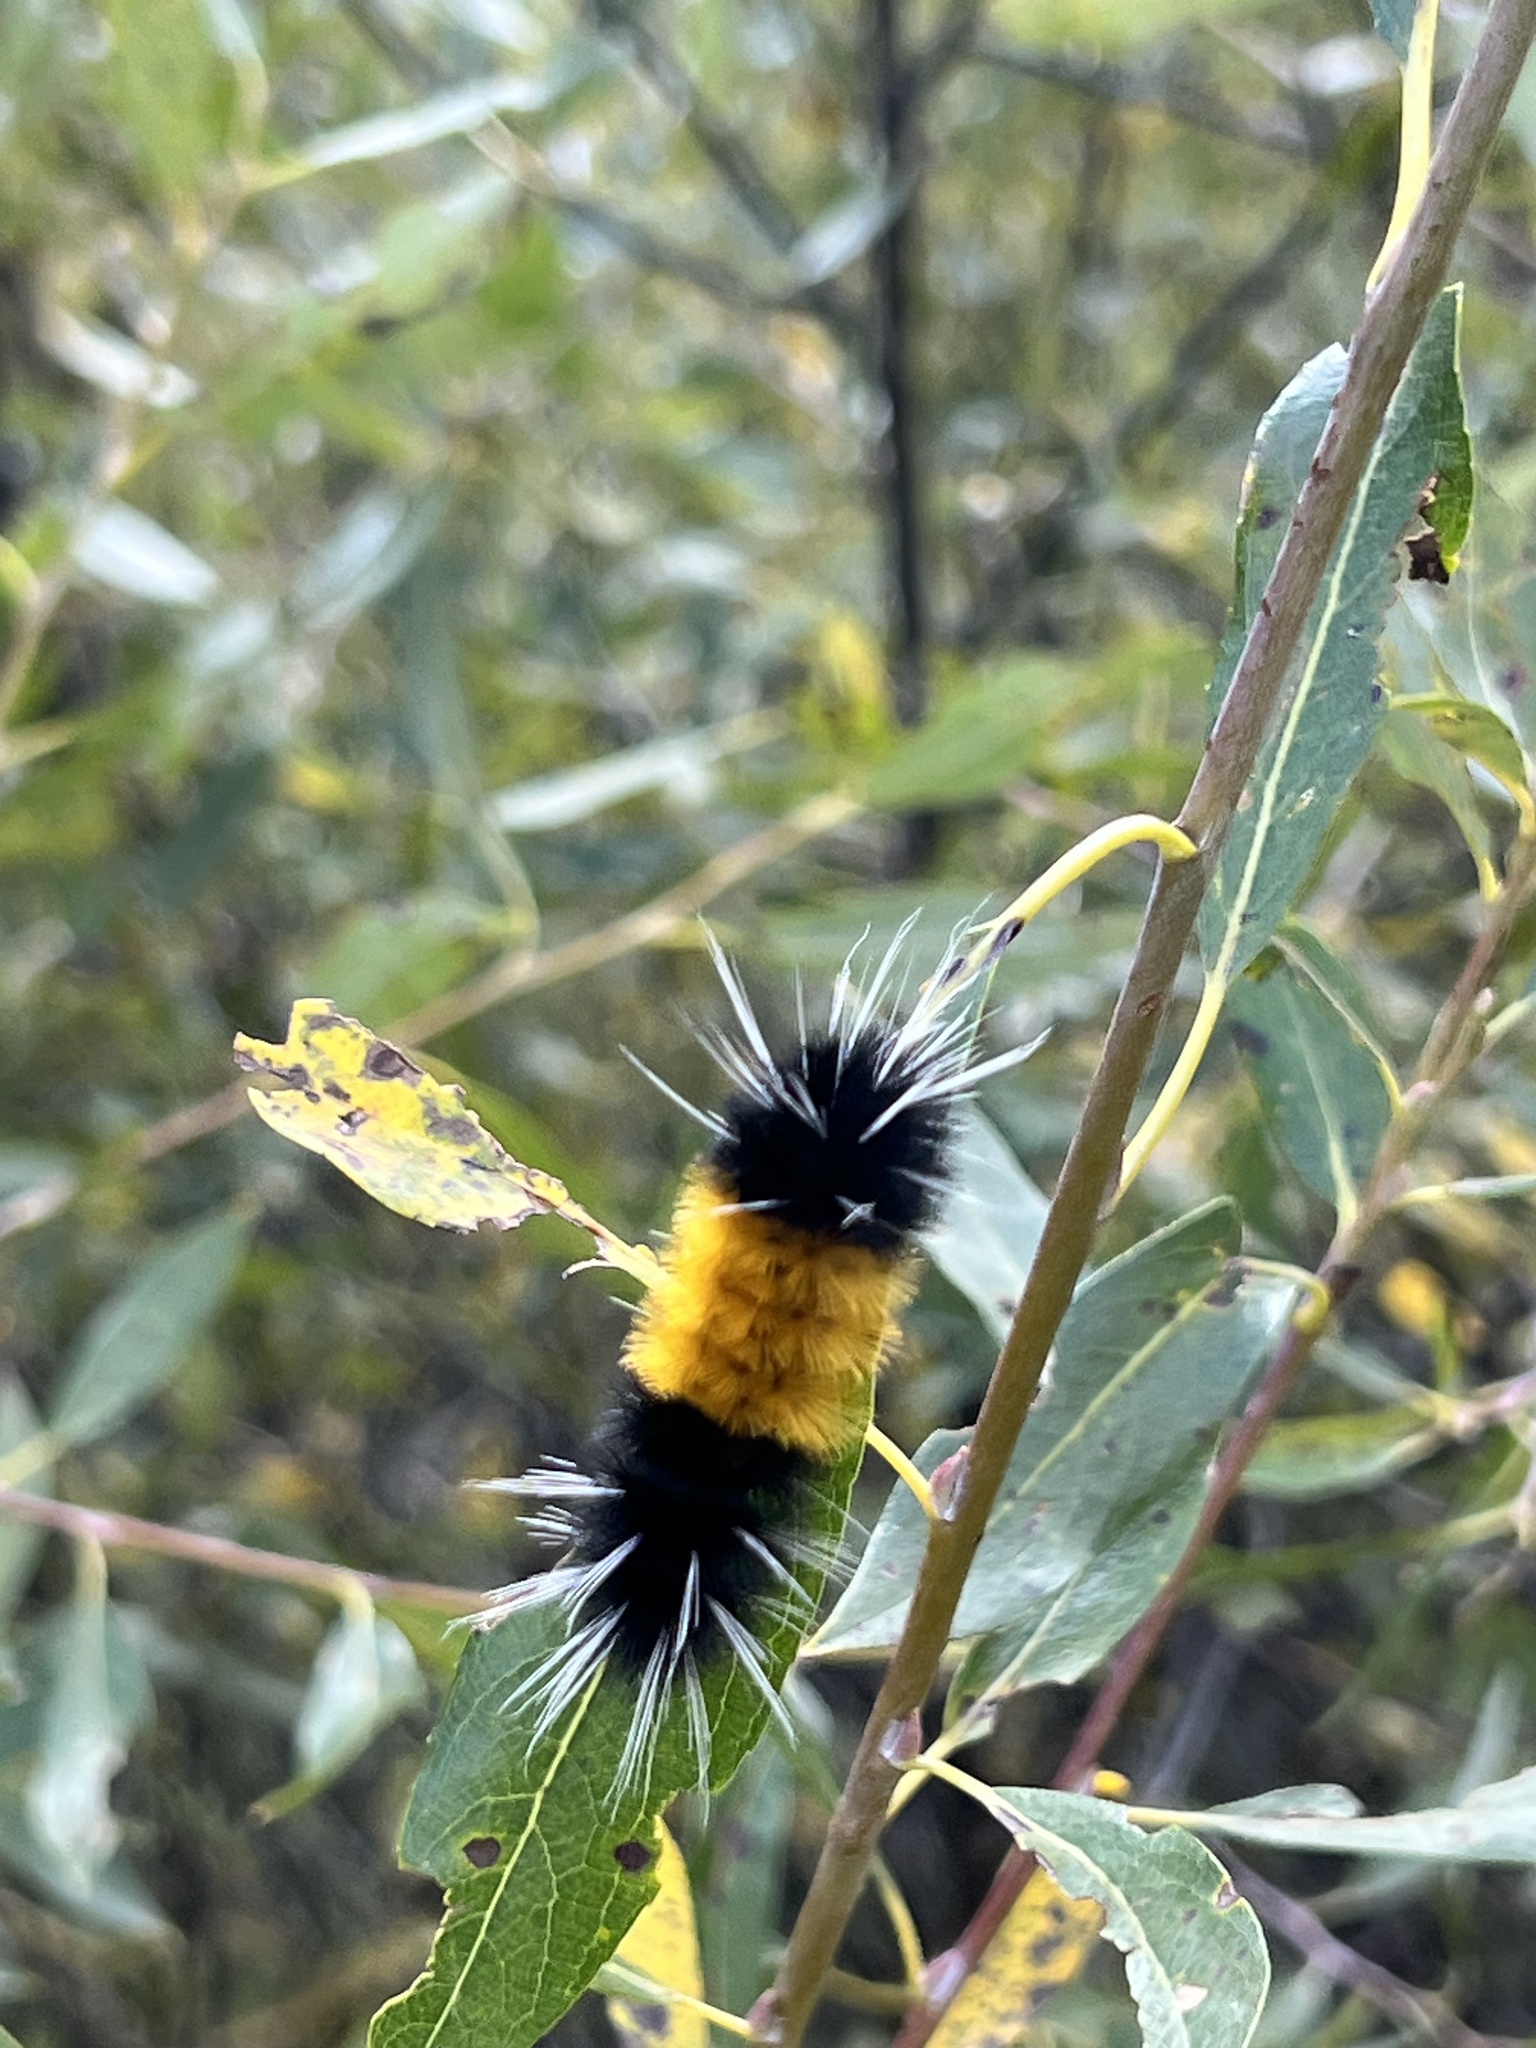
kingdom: Animalia
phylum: Arthropoda
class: Insecta
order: Lepidoptera
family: Erebidae
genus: Lophocampa
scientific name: Lophocampa maculata
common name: Spotted tussock moth
